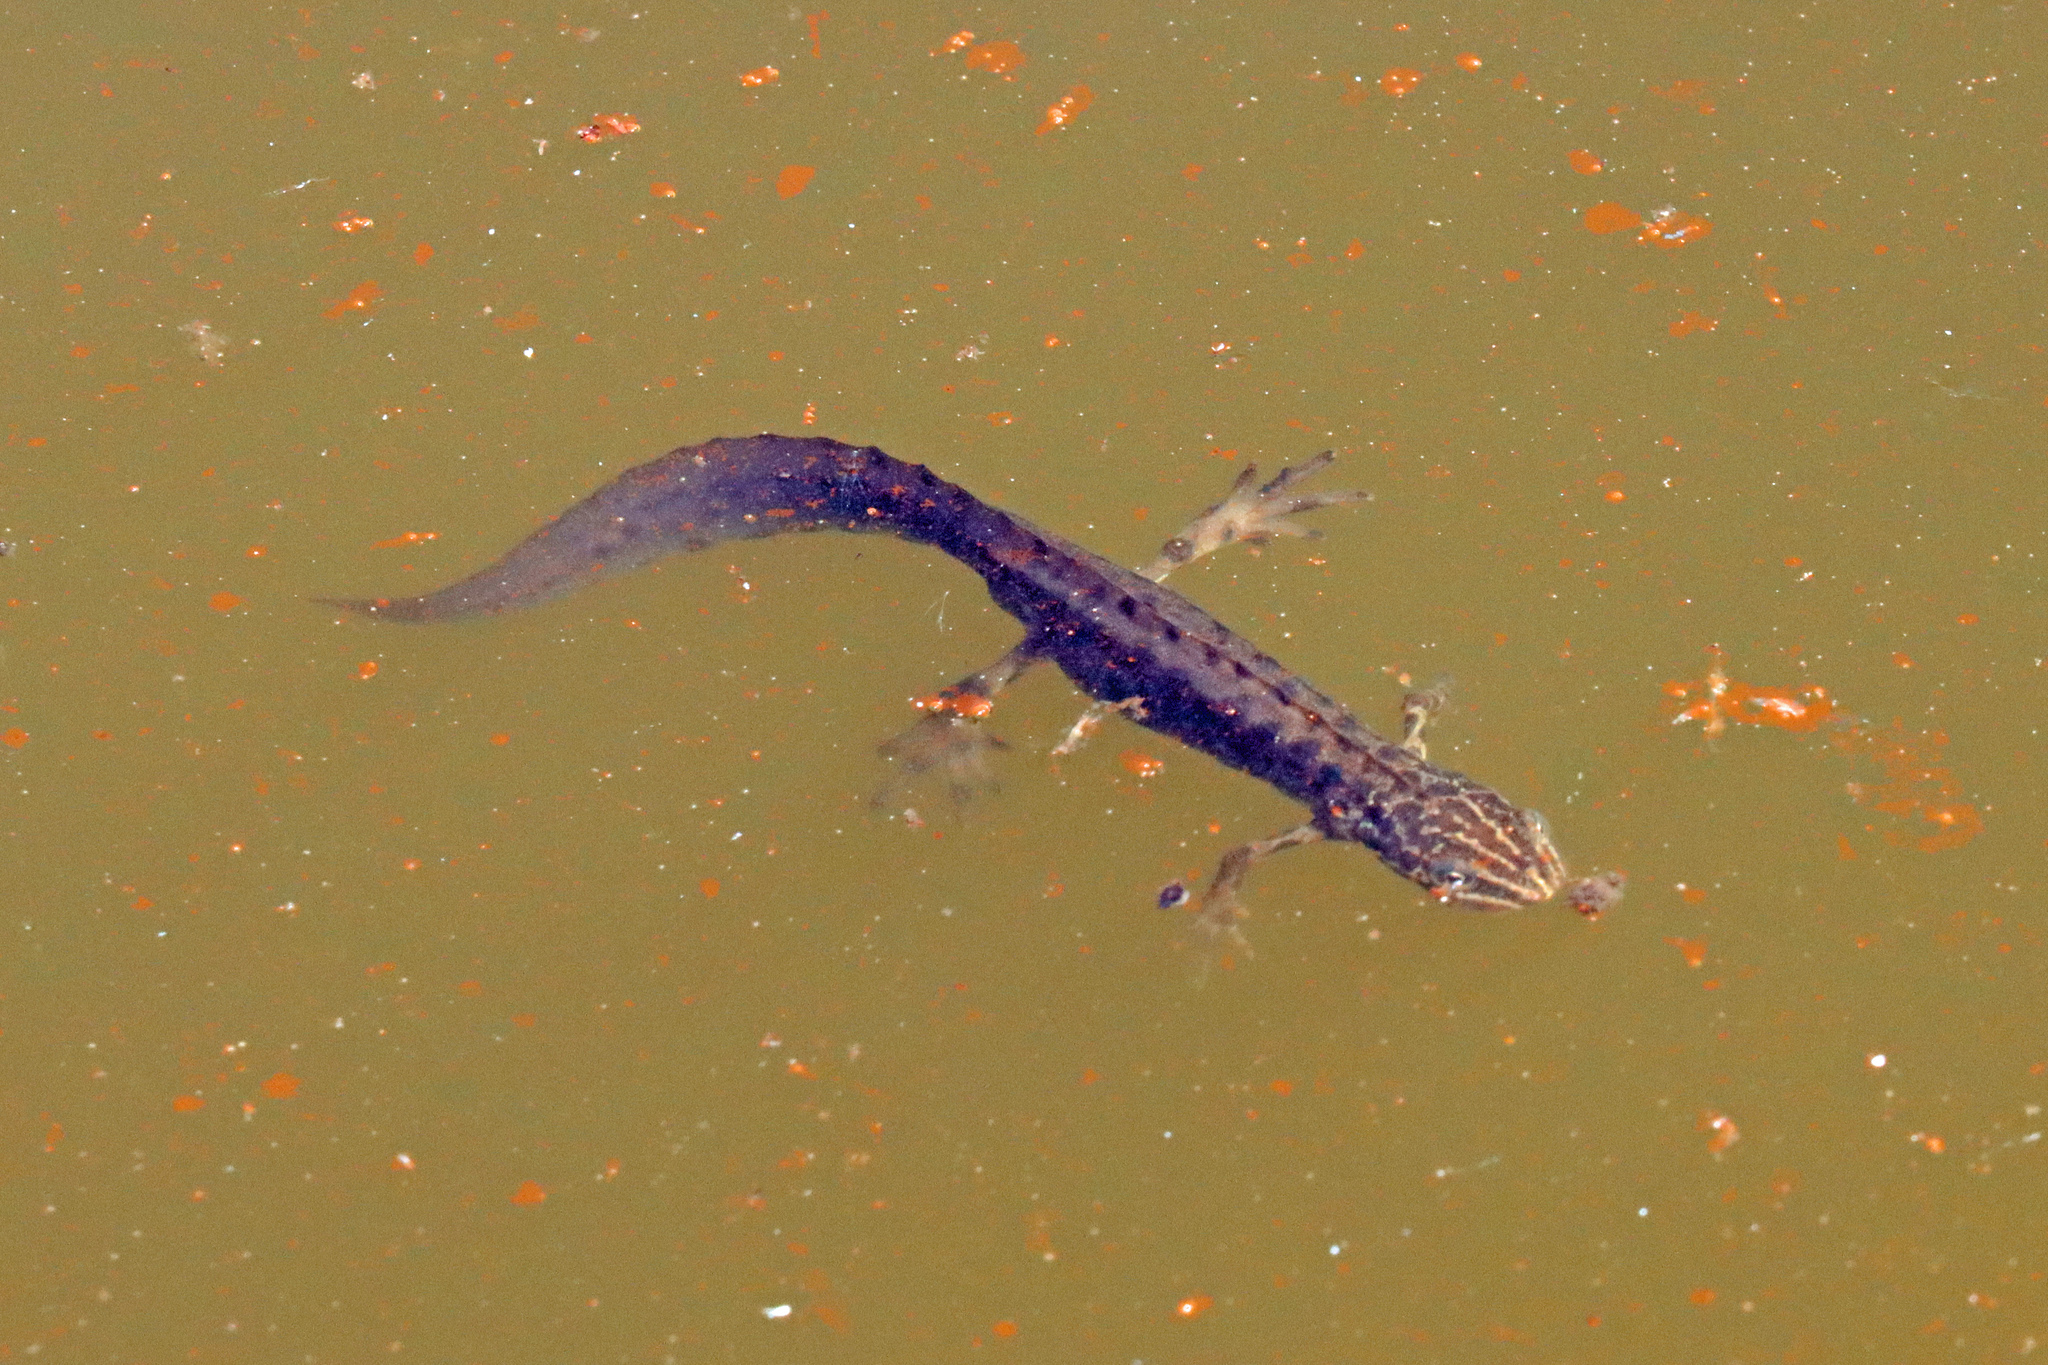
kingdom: Animalia
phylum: Chordata
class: Amphibia
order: Caudata
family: Salamandridae
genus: Lissotriton
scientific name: Lissotriton vulgaris
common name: Smooth newt
